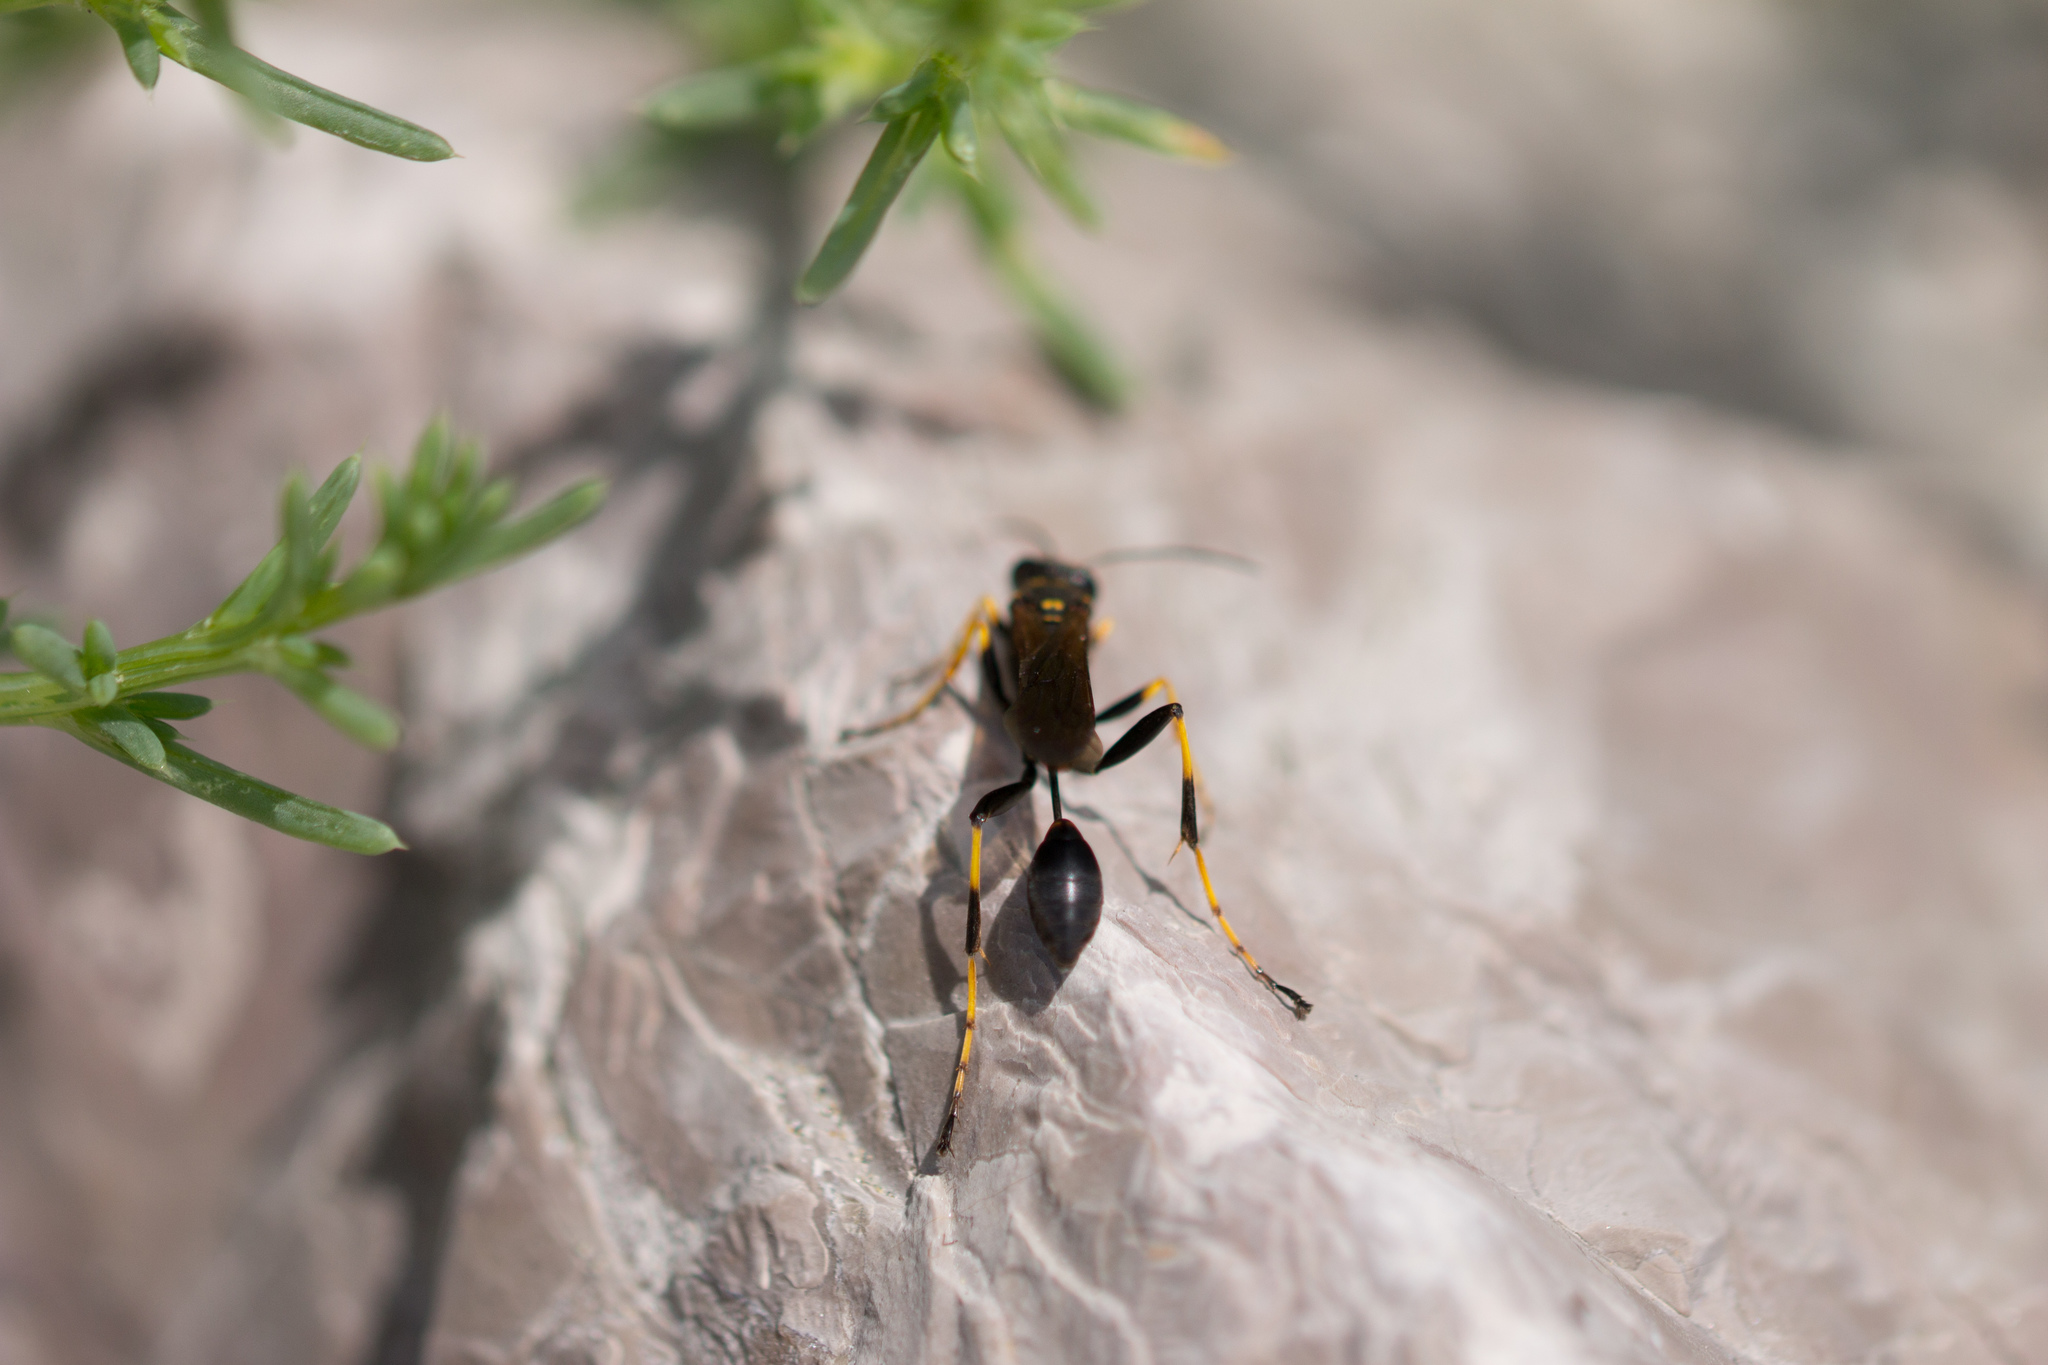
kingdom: Animalia
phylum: Arthropoda
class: Insecta
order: Hymenoptera
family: Sphecidae
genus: Sceliphron
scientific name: Sceliphron caementarium
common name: Mud dauber
